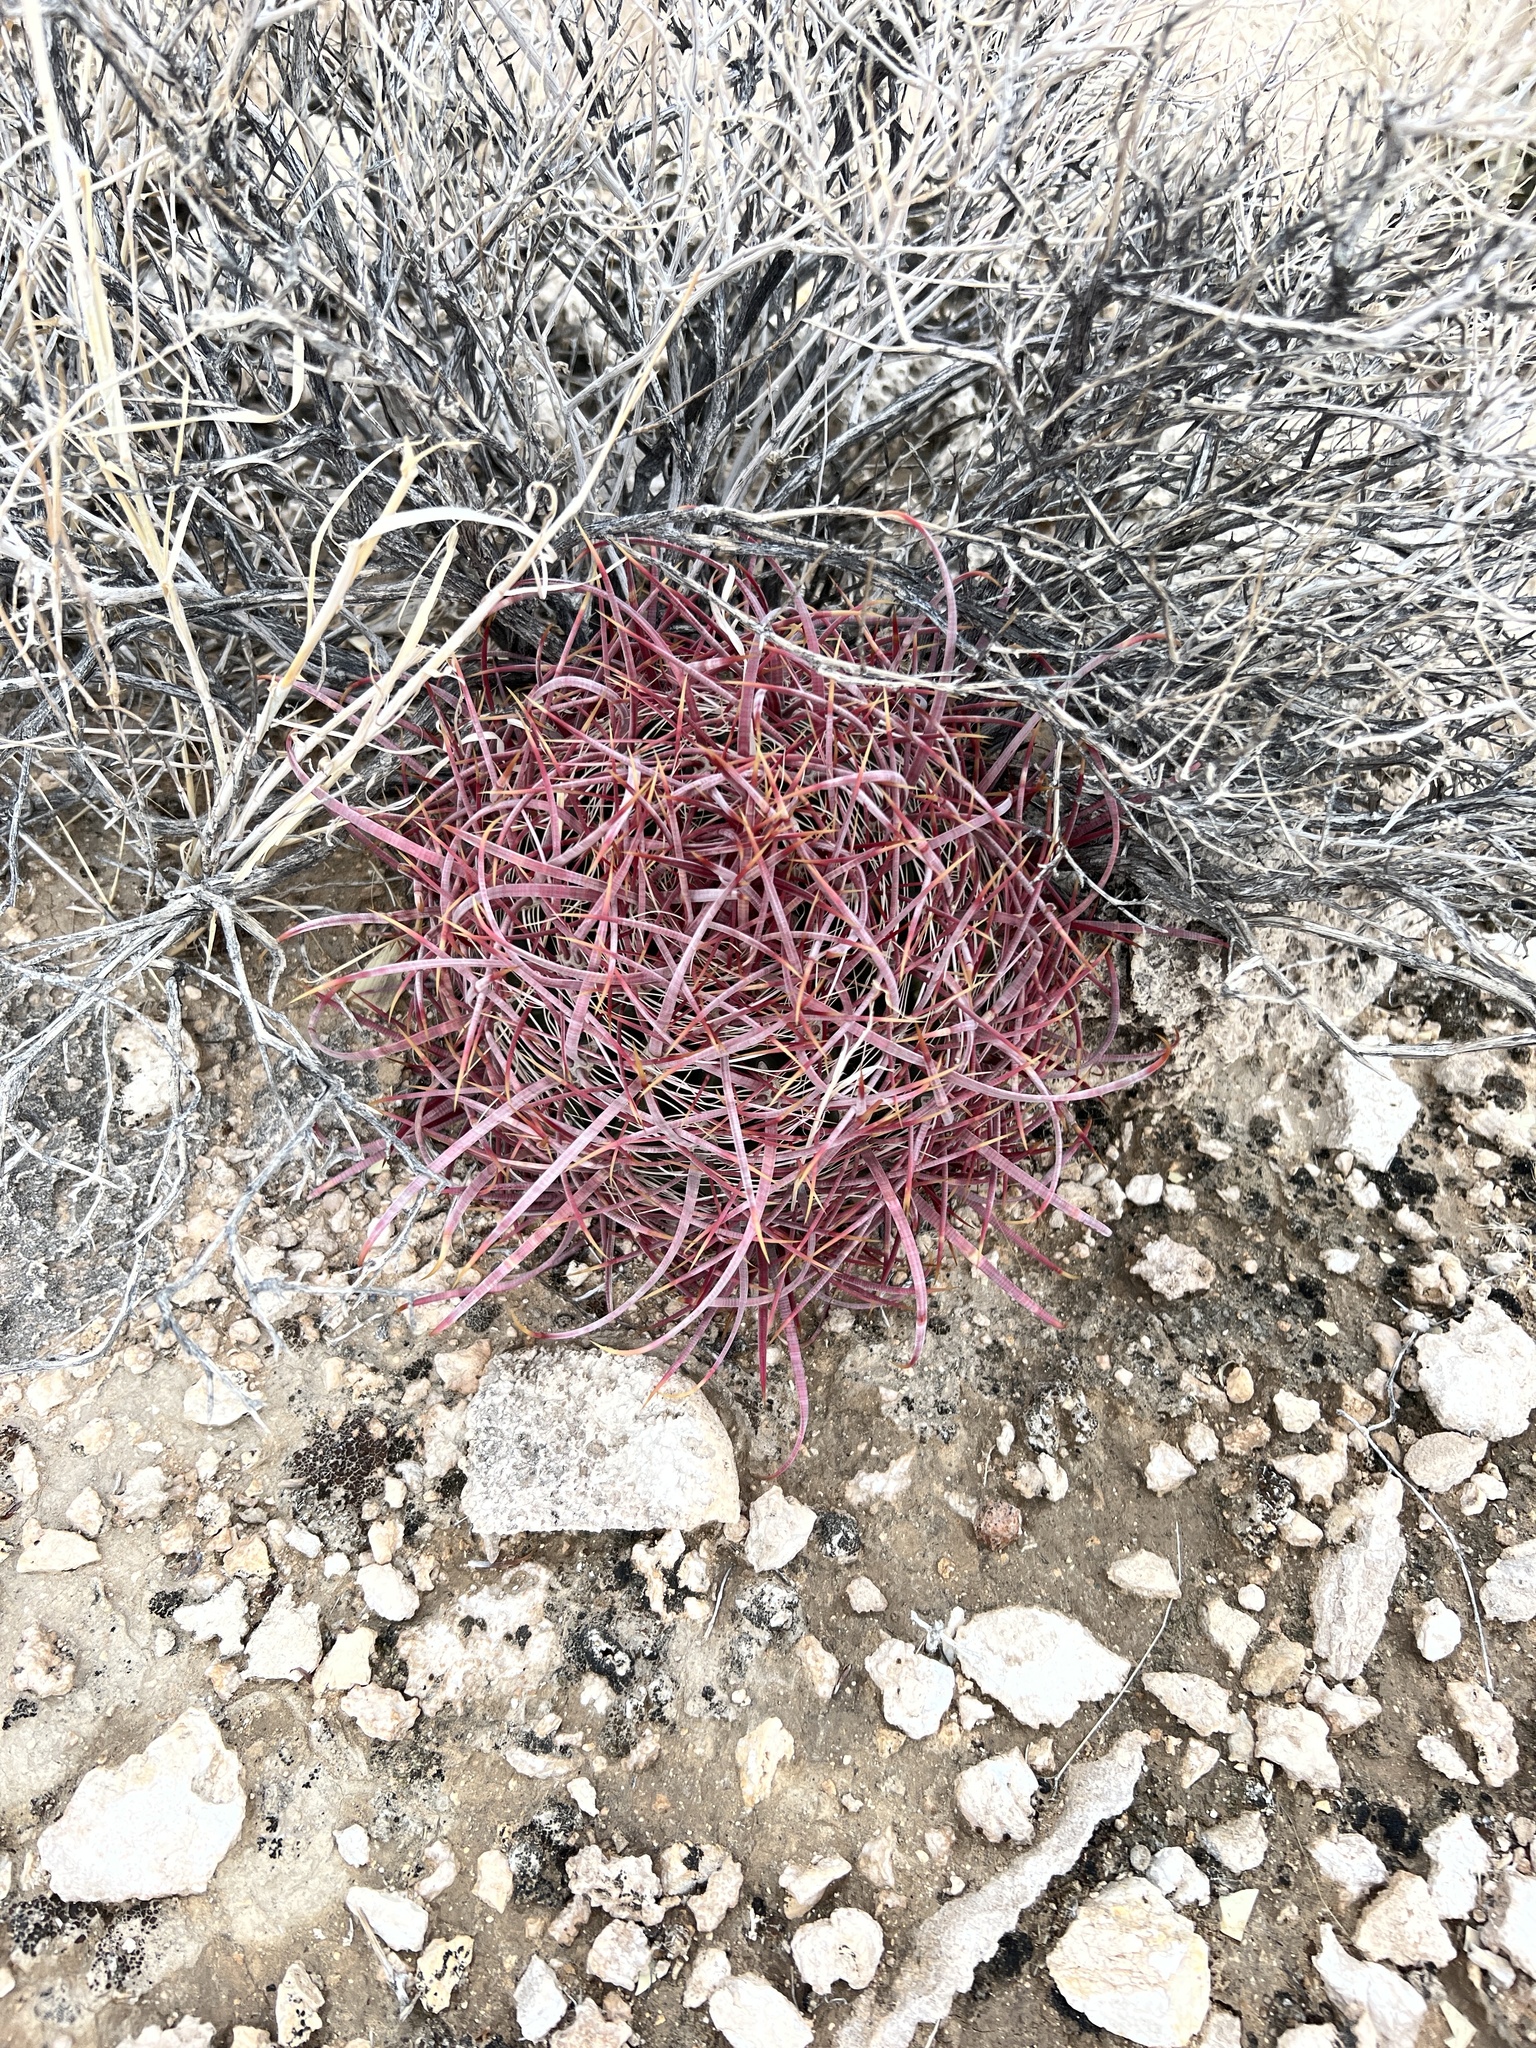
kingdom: Plantae
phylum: Tracheophyta
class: Magnoliopsida
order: Caryophyllales
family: Cactaceae
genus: Ferocactus
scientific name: Ferocactus cylindraceus
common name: California barrel cactus
